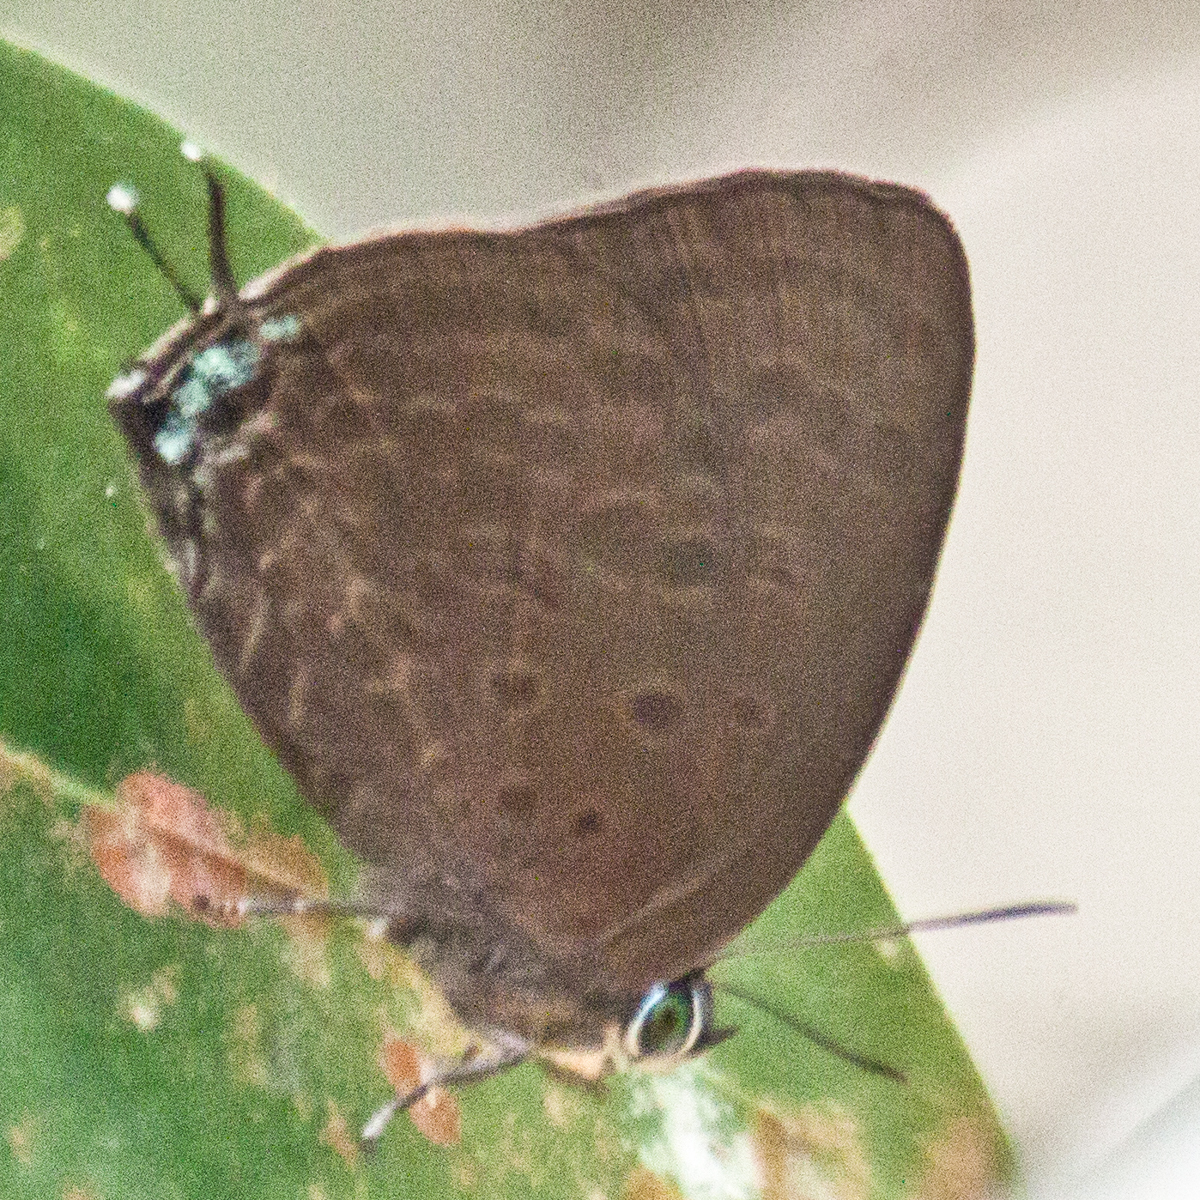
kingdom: Animalia
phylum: Arthropoda
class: Insecta
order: Lepidoptera
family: Lycaenidae
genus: Arhopala
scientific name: Arhopala agrata
